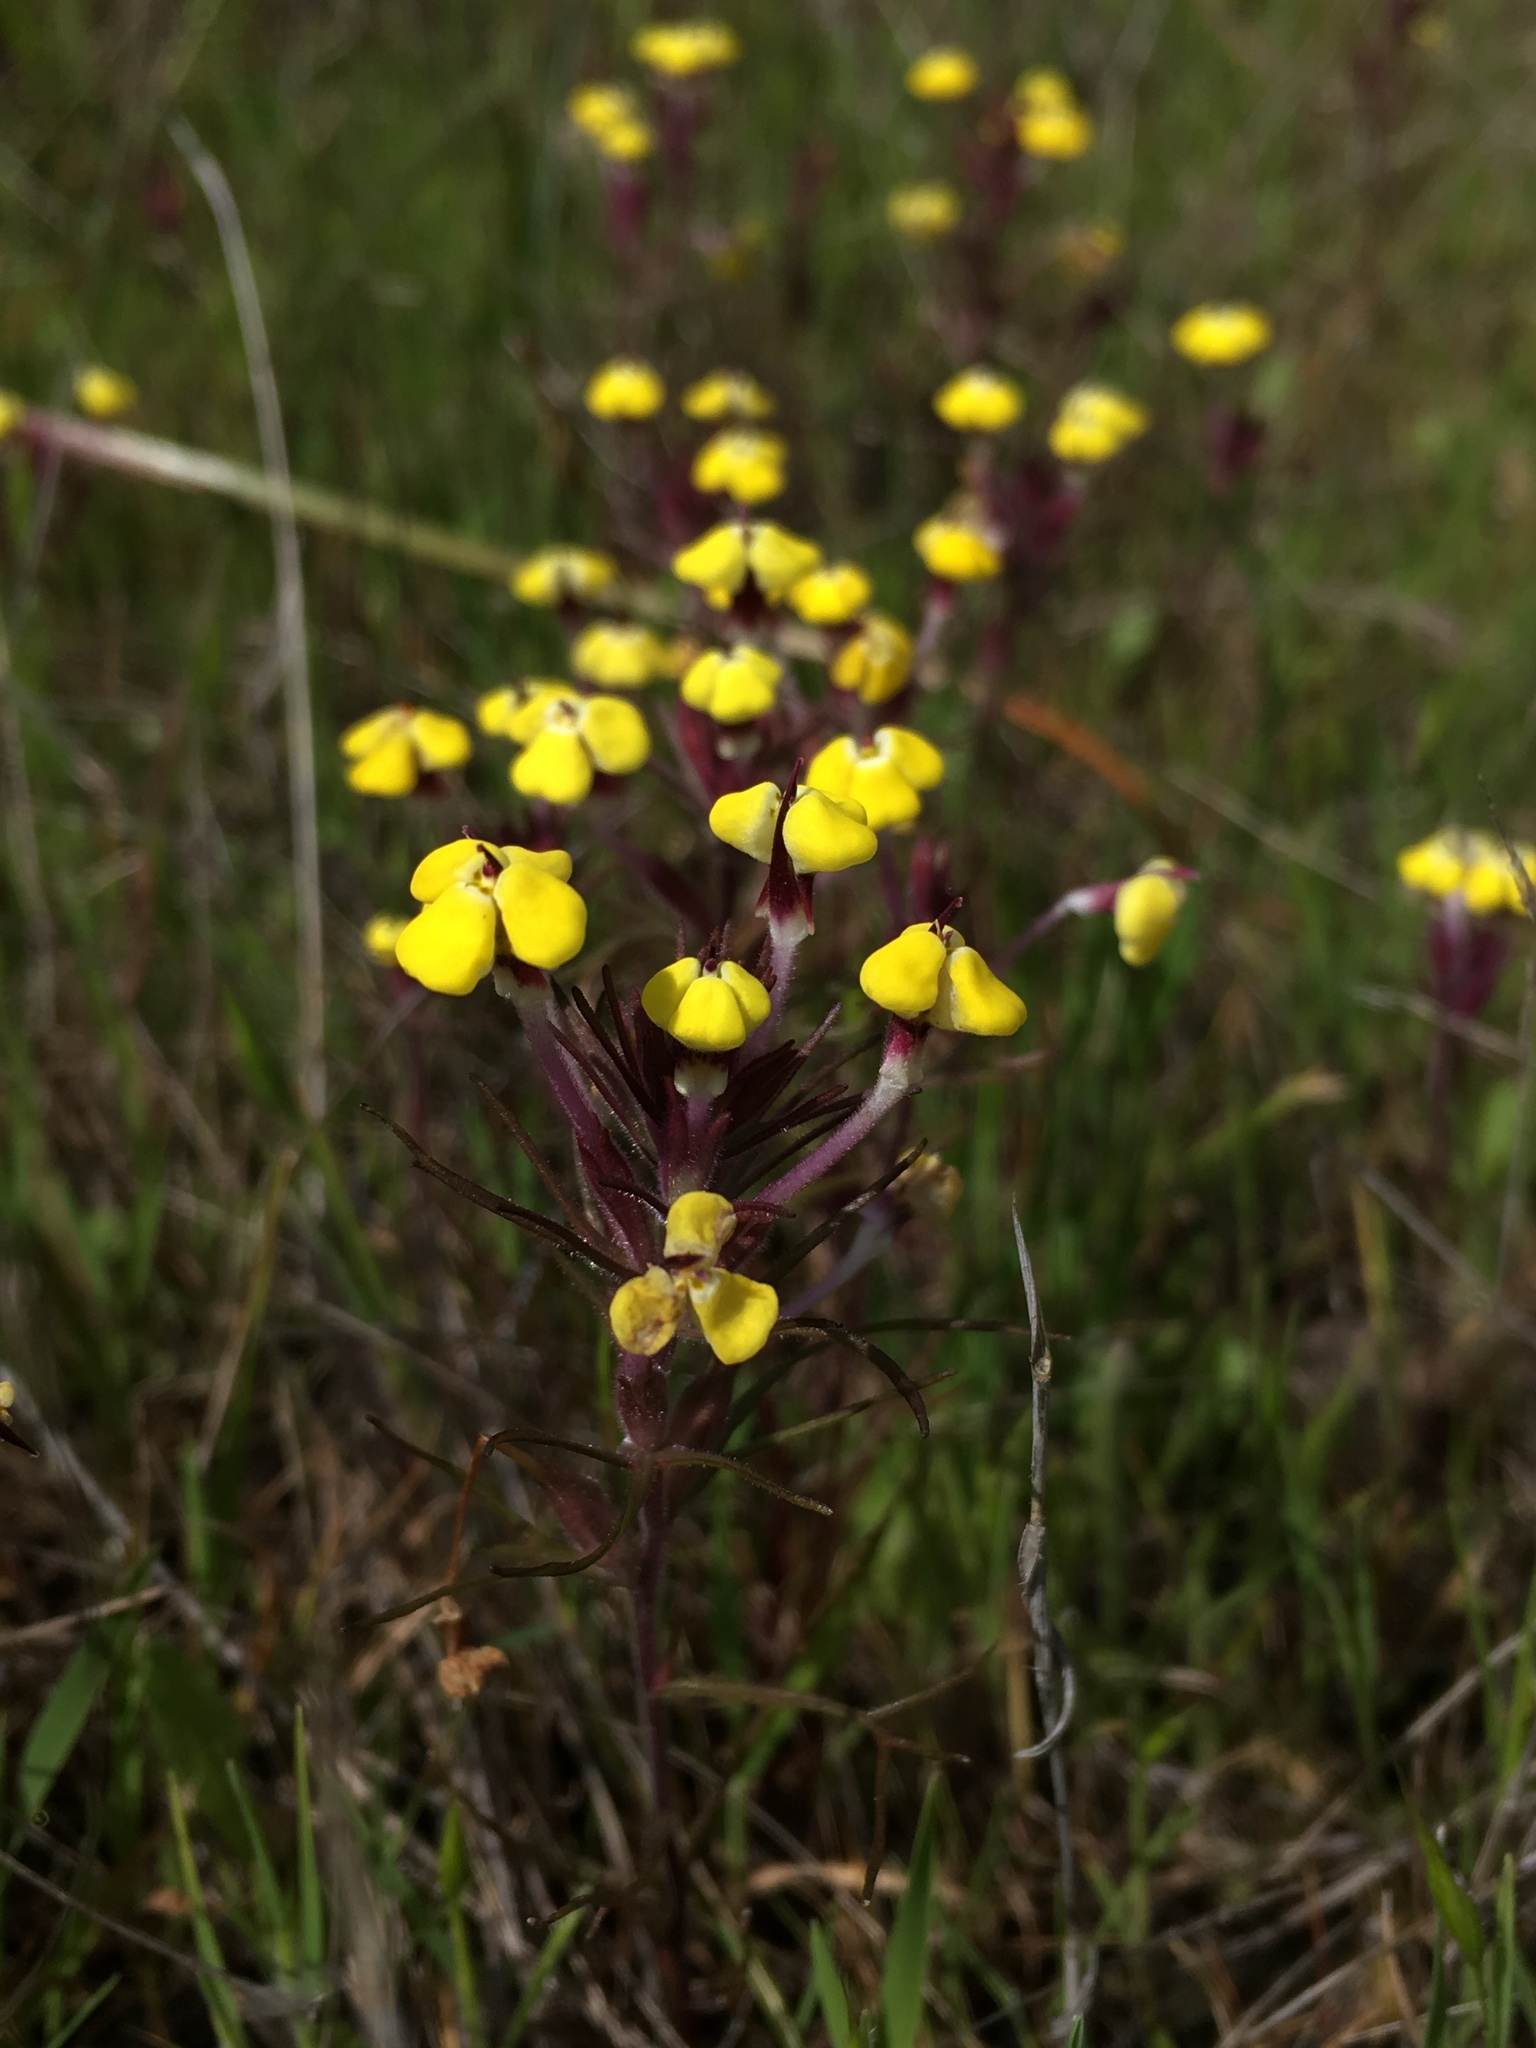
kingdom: Plantae
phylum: Tracheophyta
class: Magnoliopsida
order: Lamiales
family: Orobanchaceae
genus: Triphysaria
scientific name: Triphysaria eriantha
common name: Johnny-tuck
